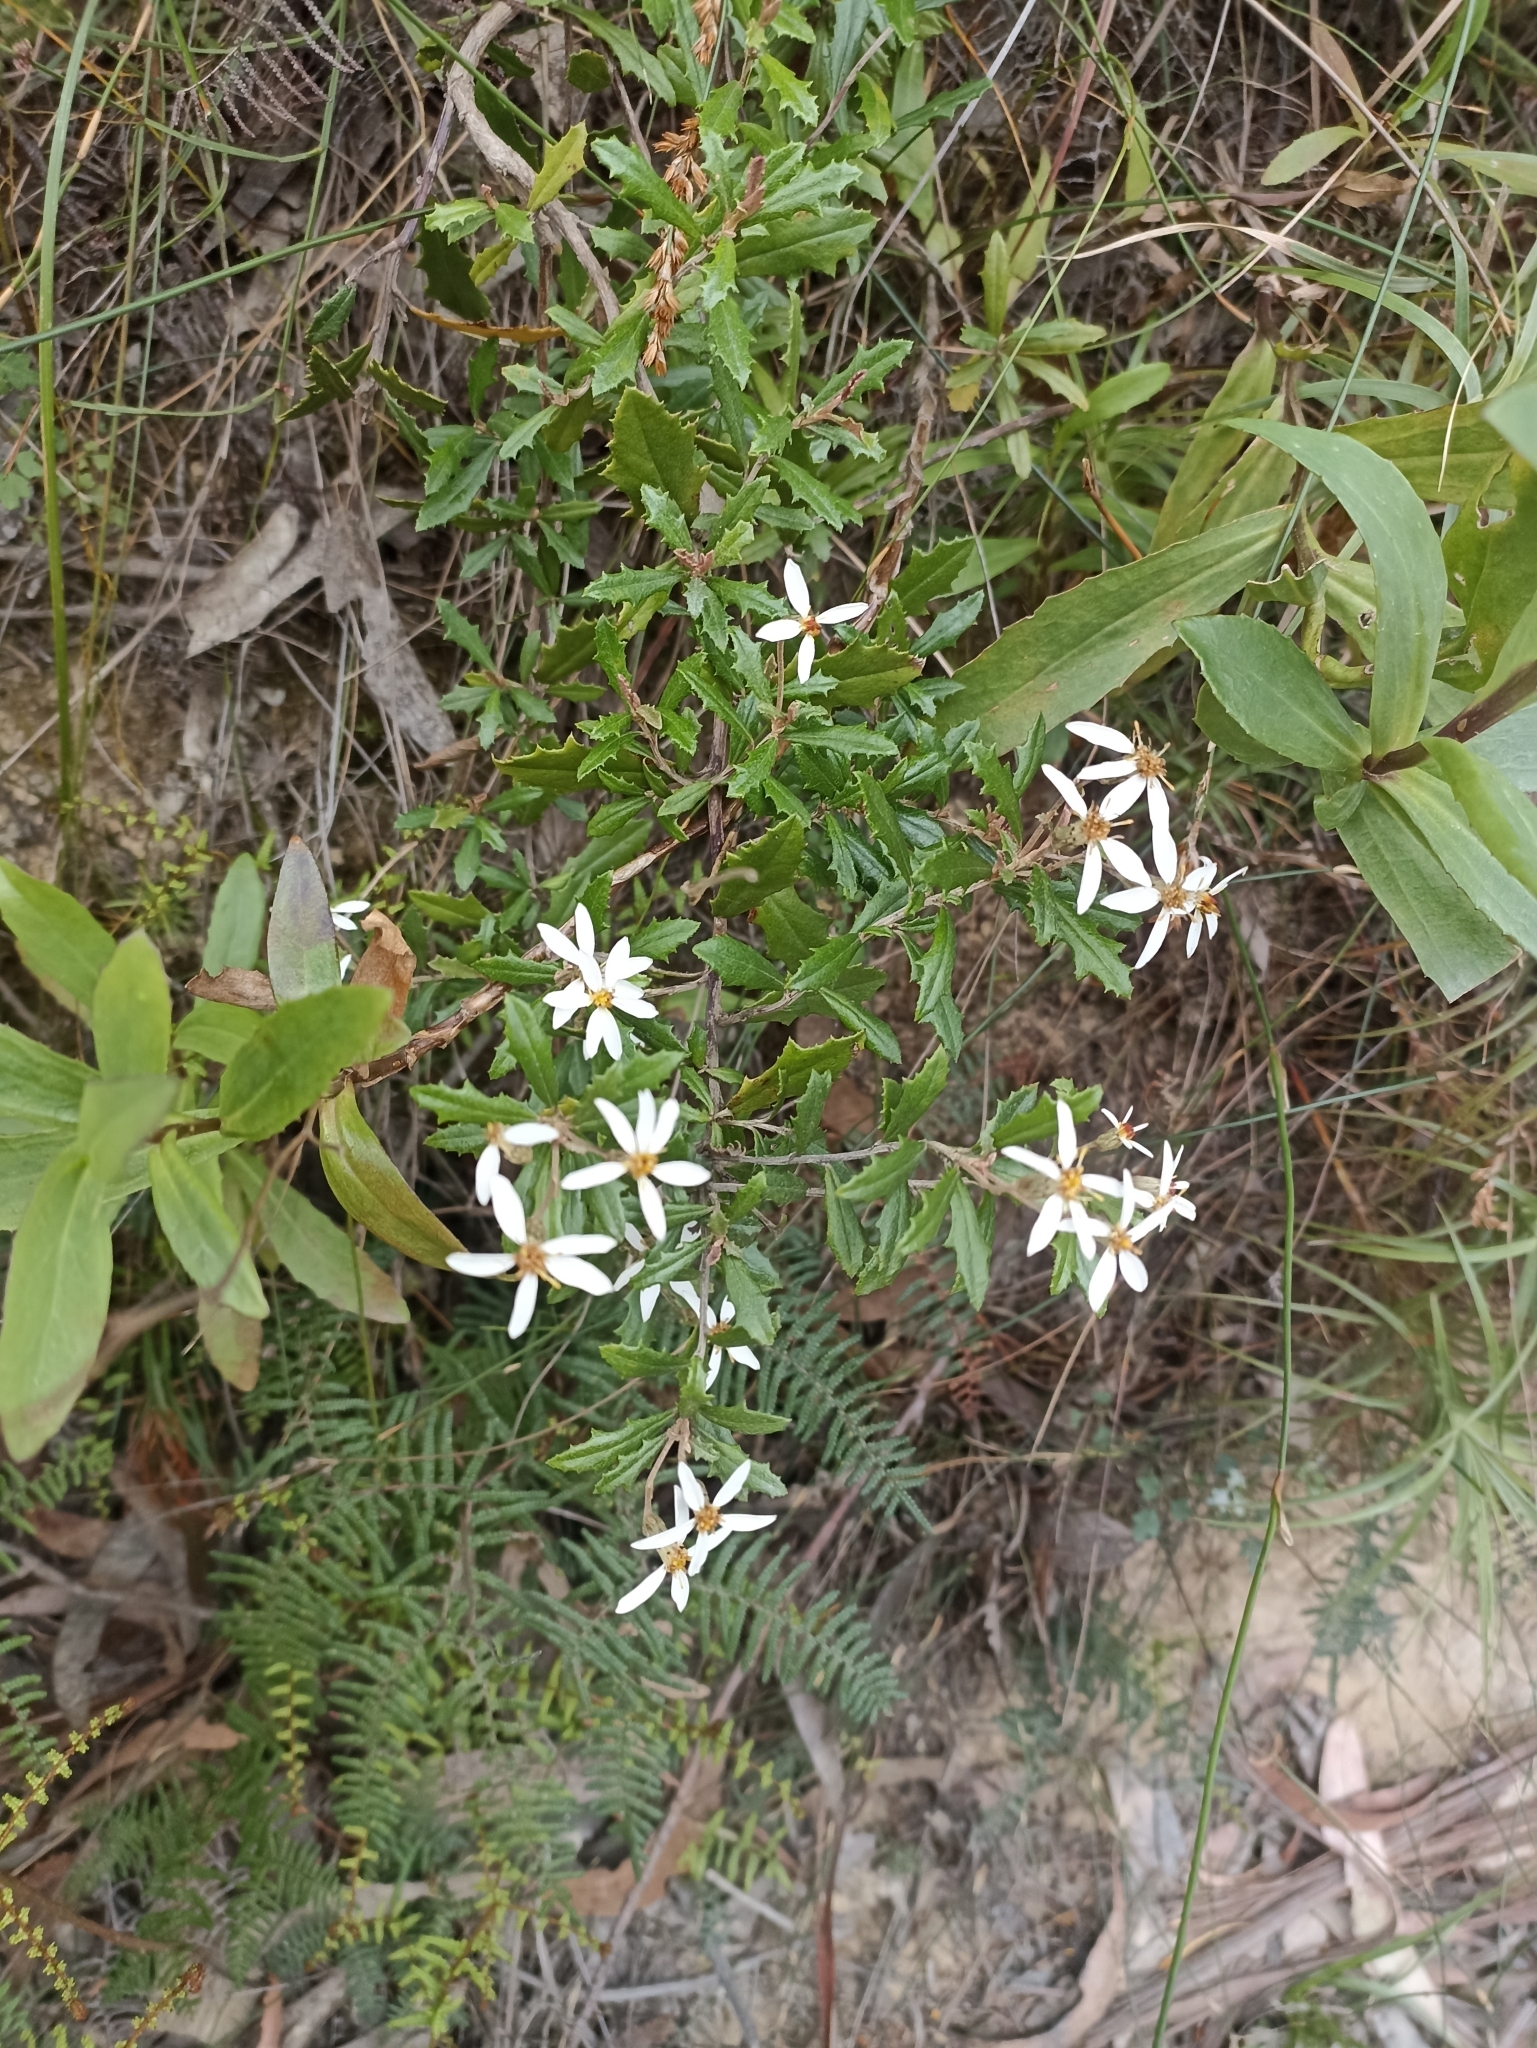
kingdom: Plantae
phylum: Tracheophyta
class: Magnoliopsida
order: Asterales
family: Asteraceae
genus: Olearia
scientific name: Olearia erubescens
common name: Moth daisybush
